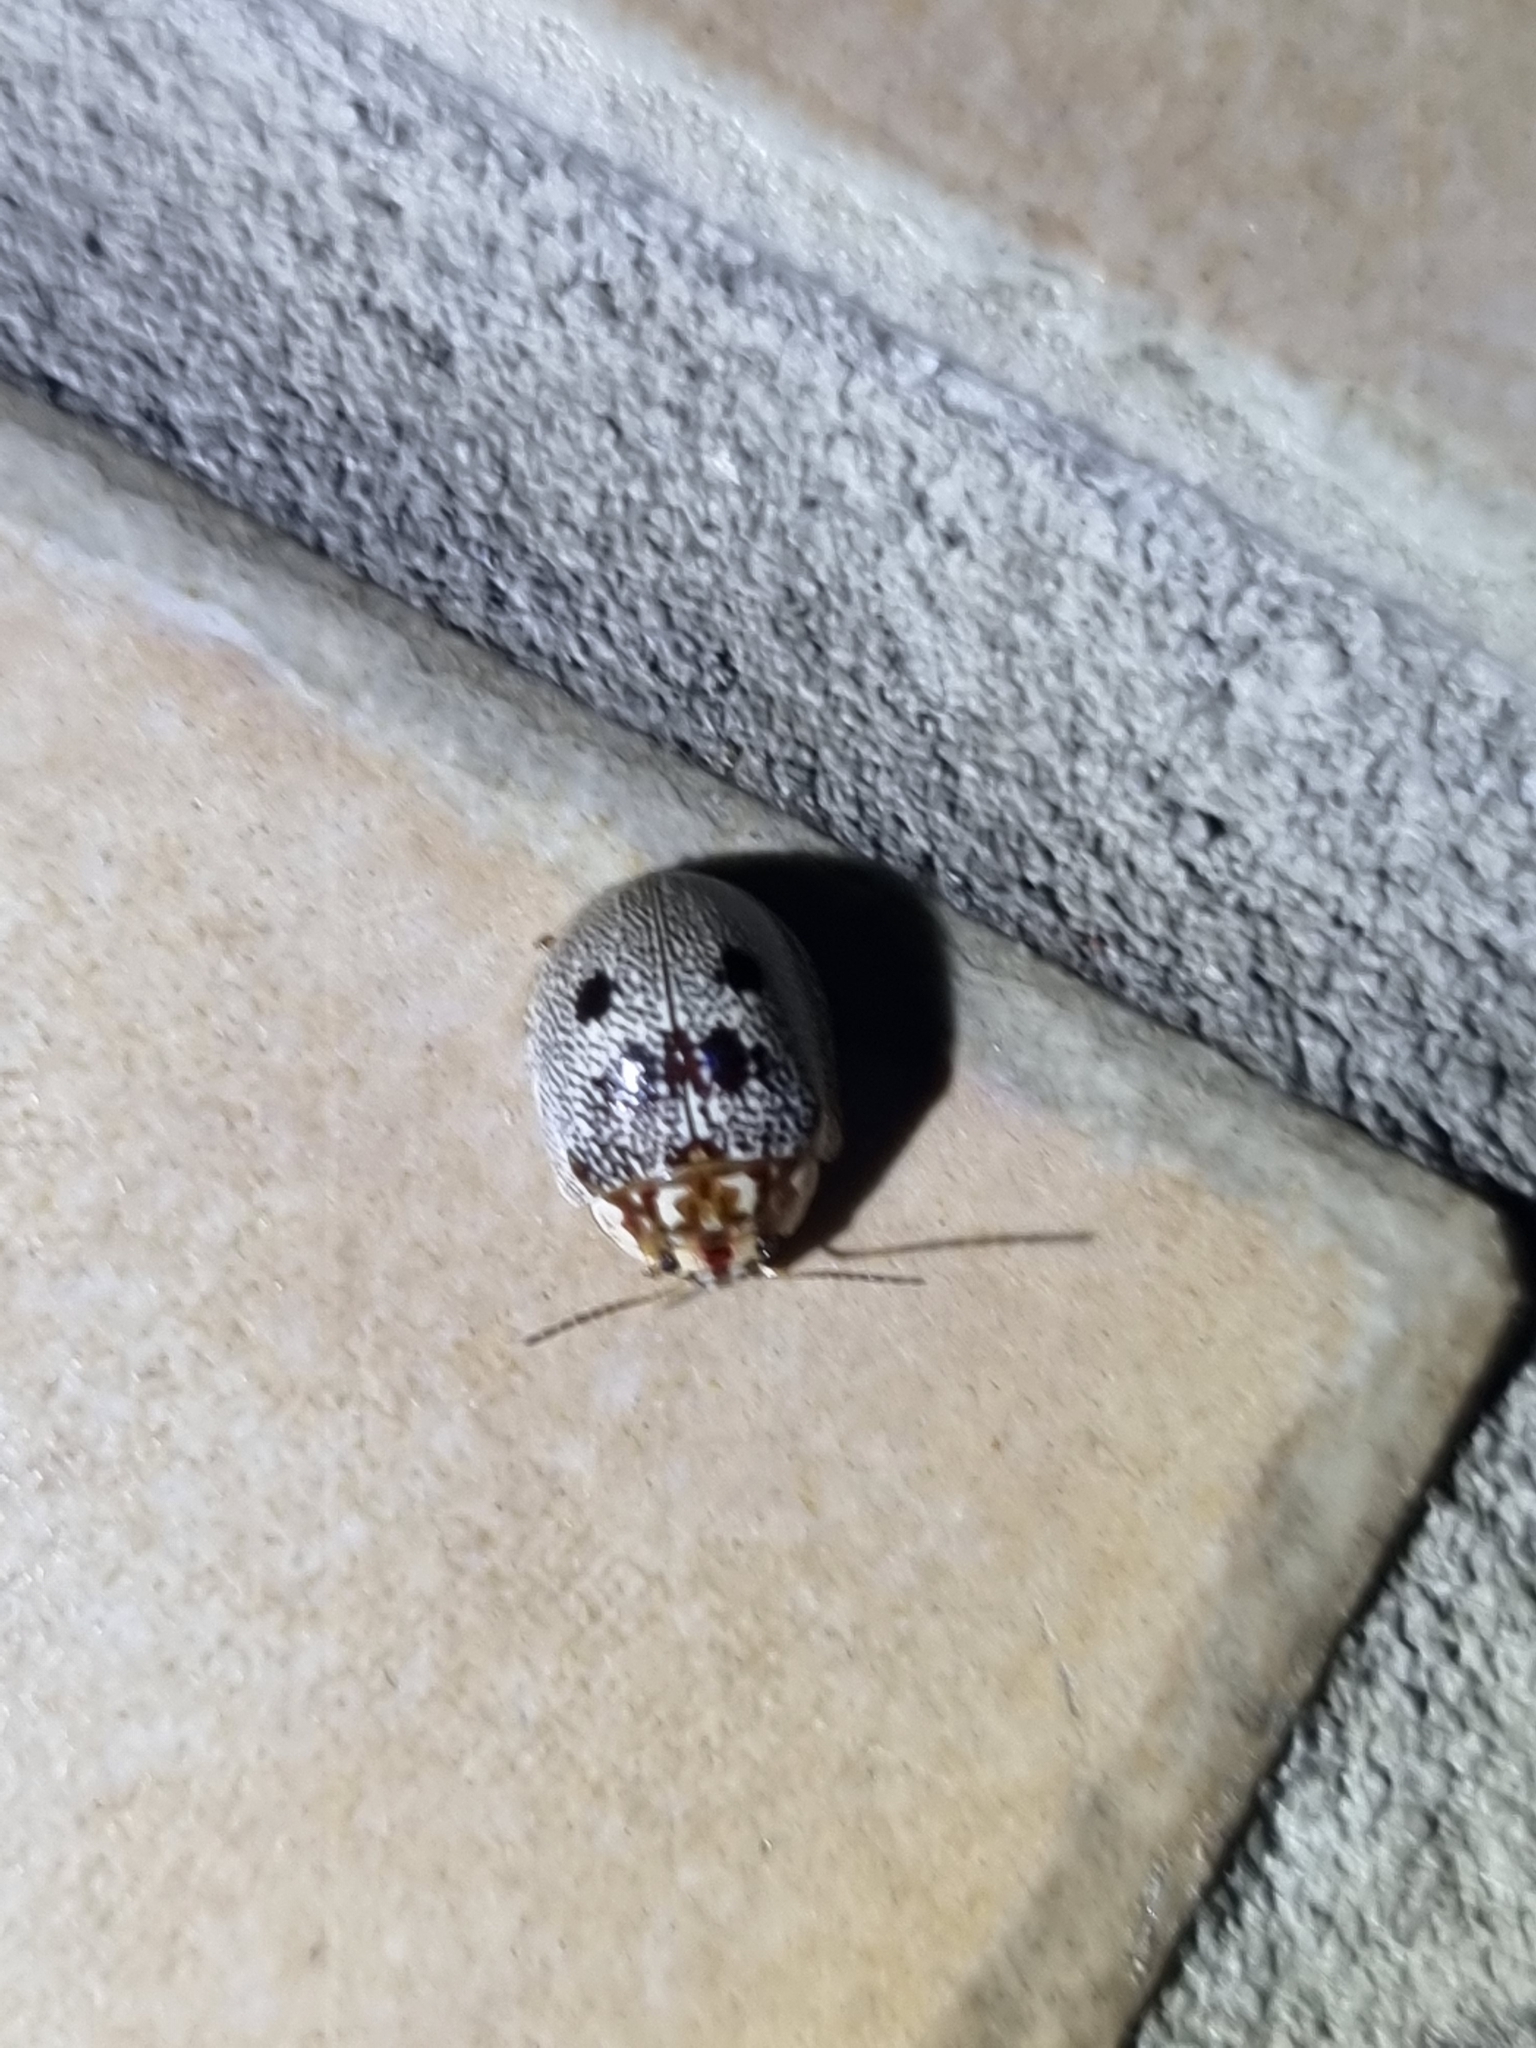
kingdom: Animalia
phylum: Arthropoda
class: Insecta
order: Coleoptera
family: Chrysomelidae
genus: Paropsis
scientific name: Paropsis sospita
